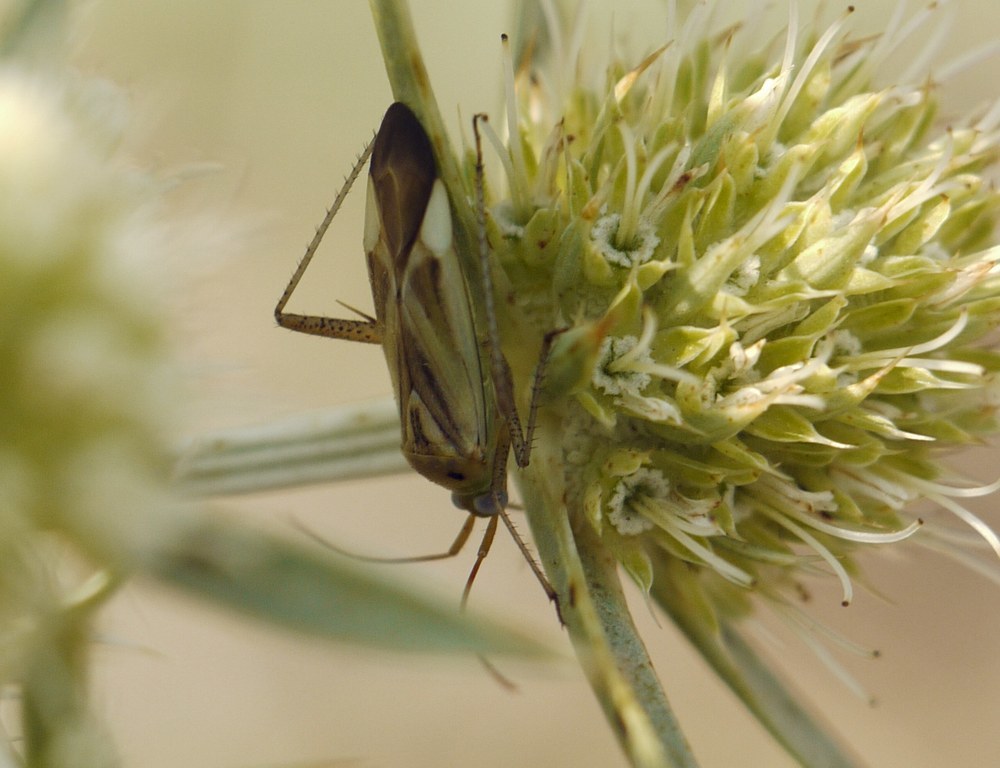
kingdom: Animalia
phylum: Arthropoda
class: Insecta
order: Hemiptera
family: Miridae
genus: Adelphocoris
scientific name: Adelphocoris lineolatus
